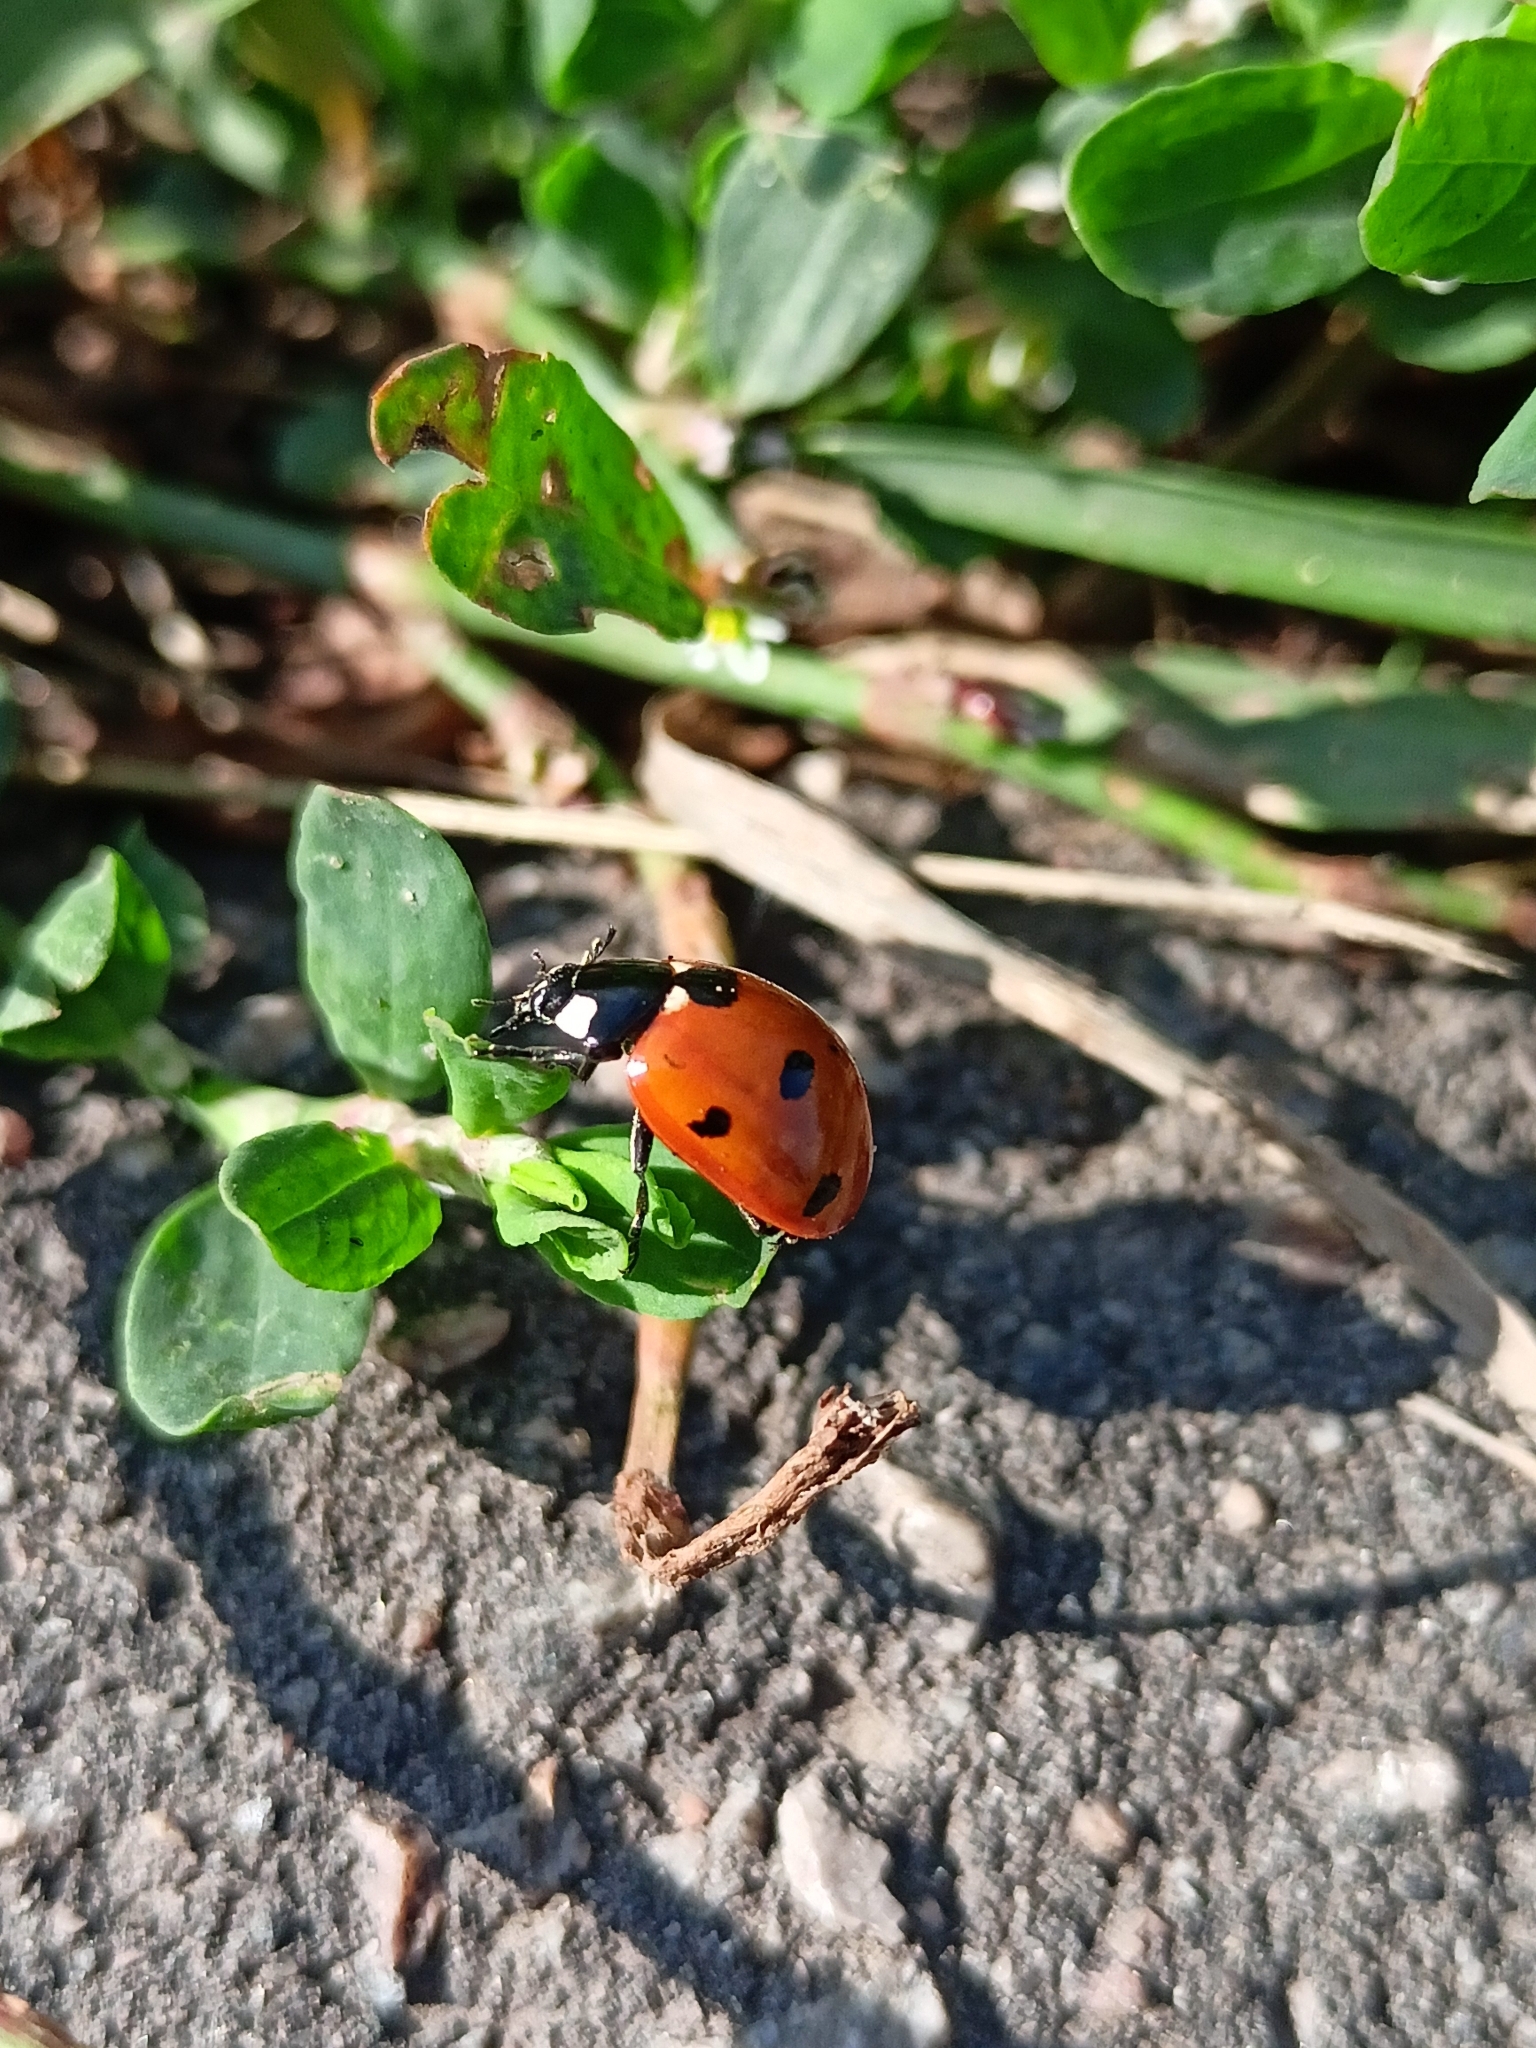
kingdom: Animalia
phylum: Arthropoda
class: Insecta
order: Coleoptera
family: Coccinellidae
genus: Coccinella
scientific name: Coccinella septempunctata
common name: Sevenspotted lady beetle
